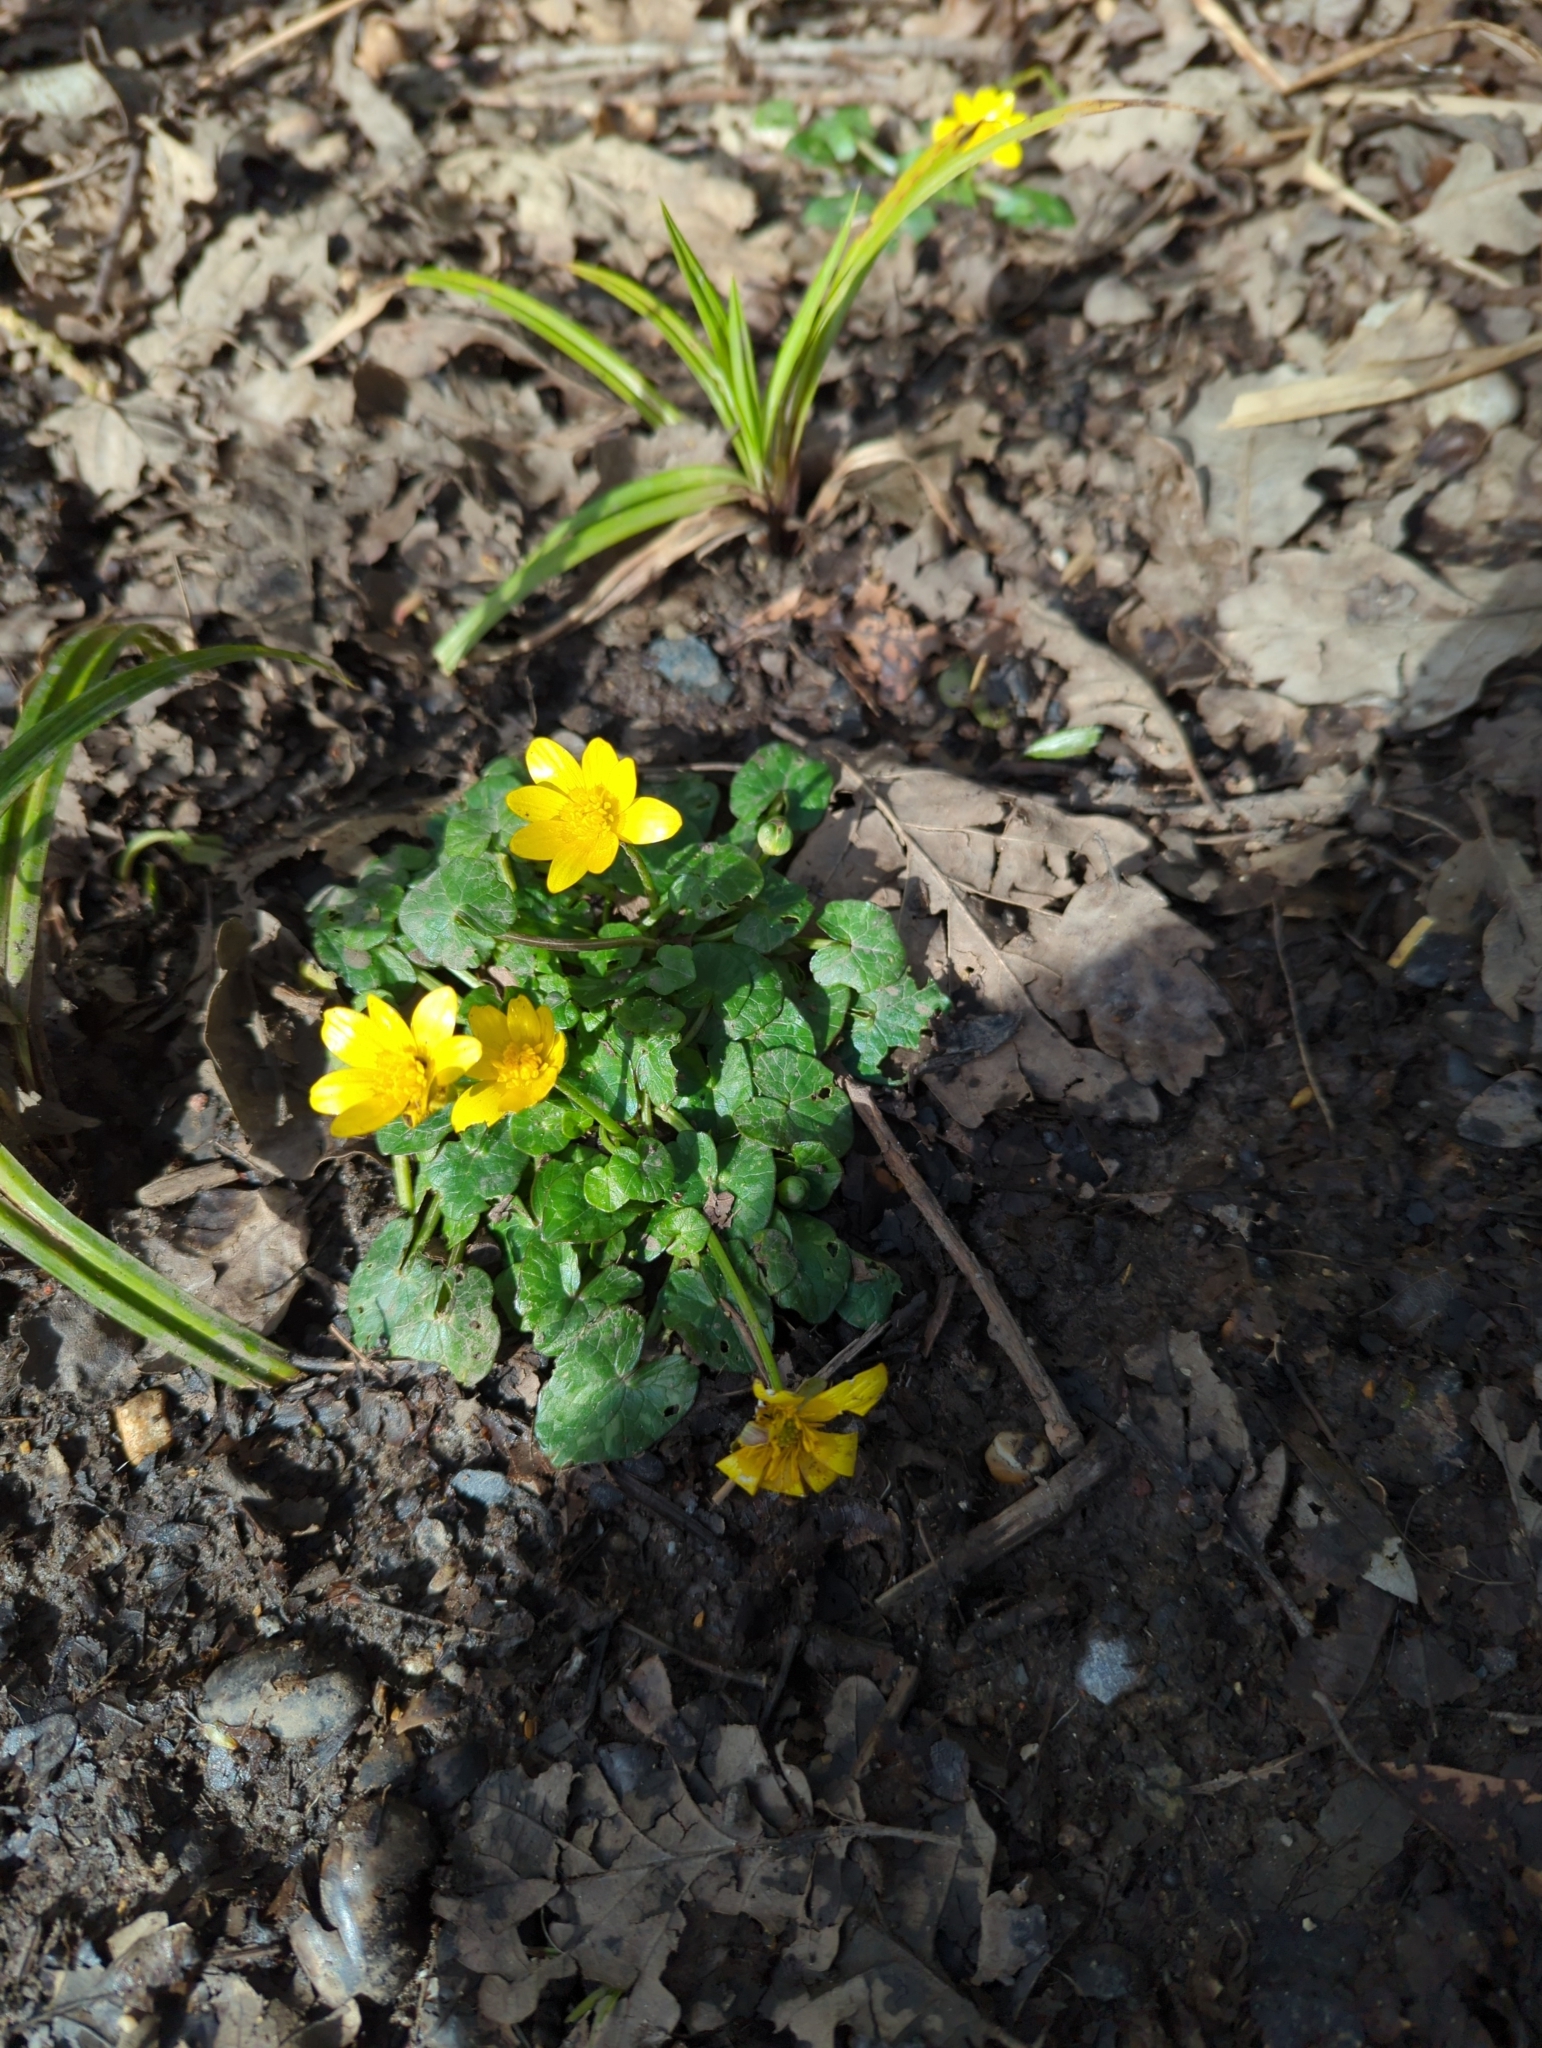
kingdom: Plantae
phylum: Tracheophyta
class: Magnoliopsida
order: Ranunculales
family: Ranunculaceae
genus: Ficaria
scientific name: Ficaria verna
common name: Lesser celandine
